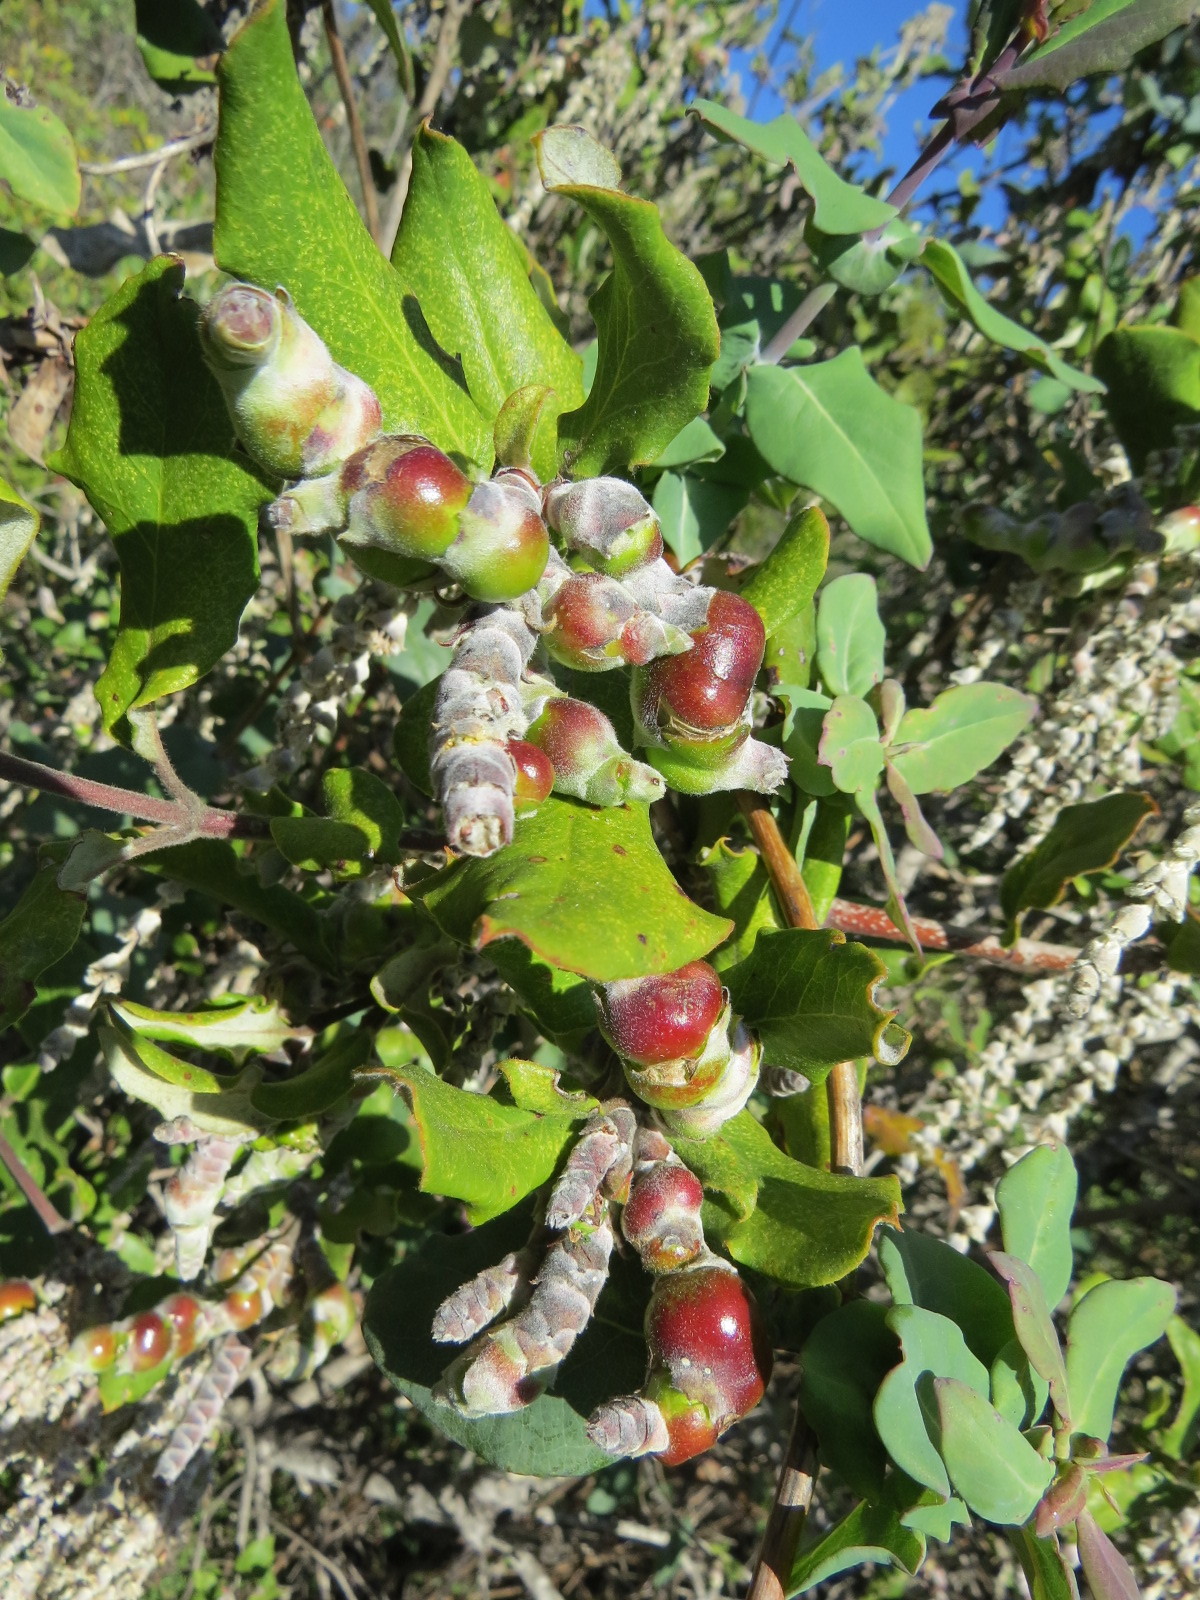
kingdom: Animalia
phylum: Arthropoda
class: Insecta
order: Diptera
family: Cecidomyiidae
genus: Asphondylia
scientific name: Asphondylia garryae
